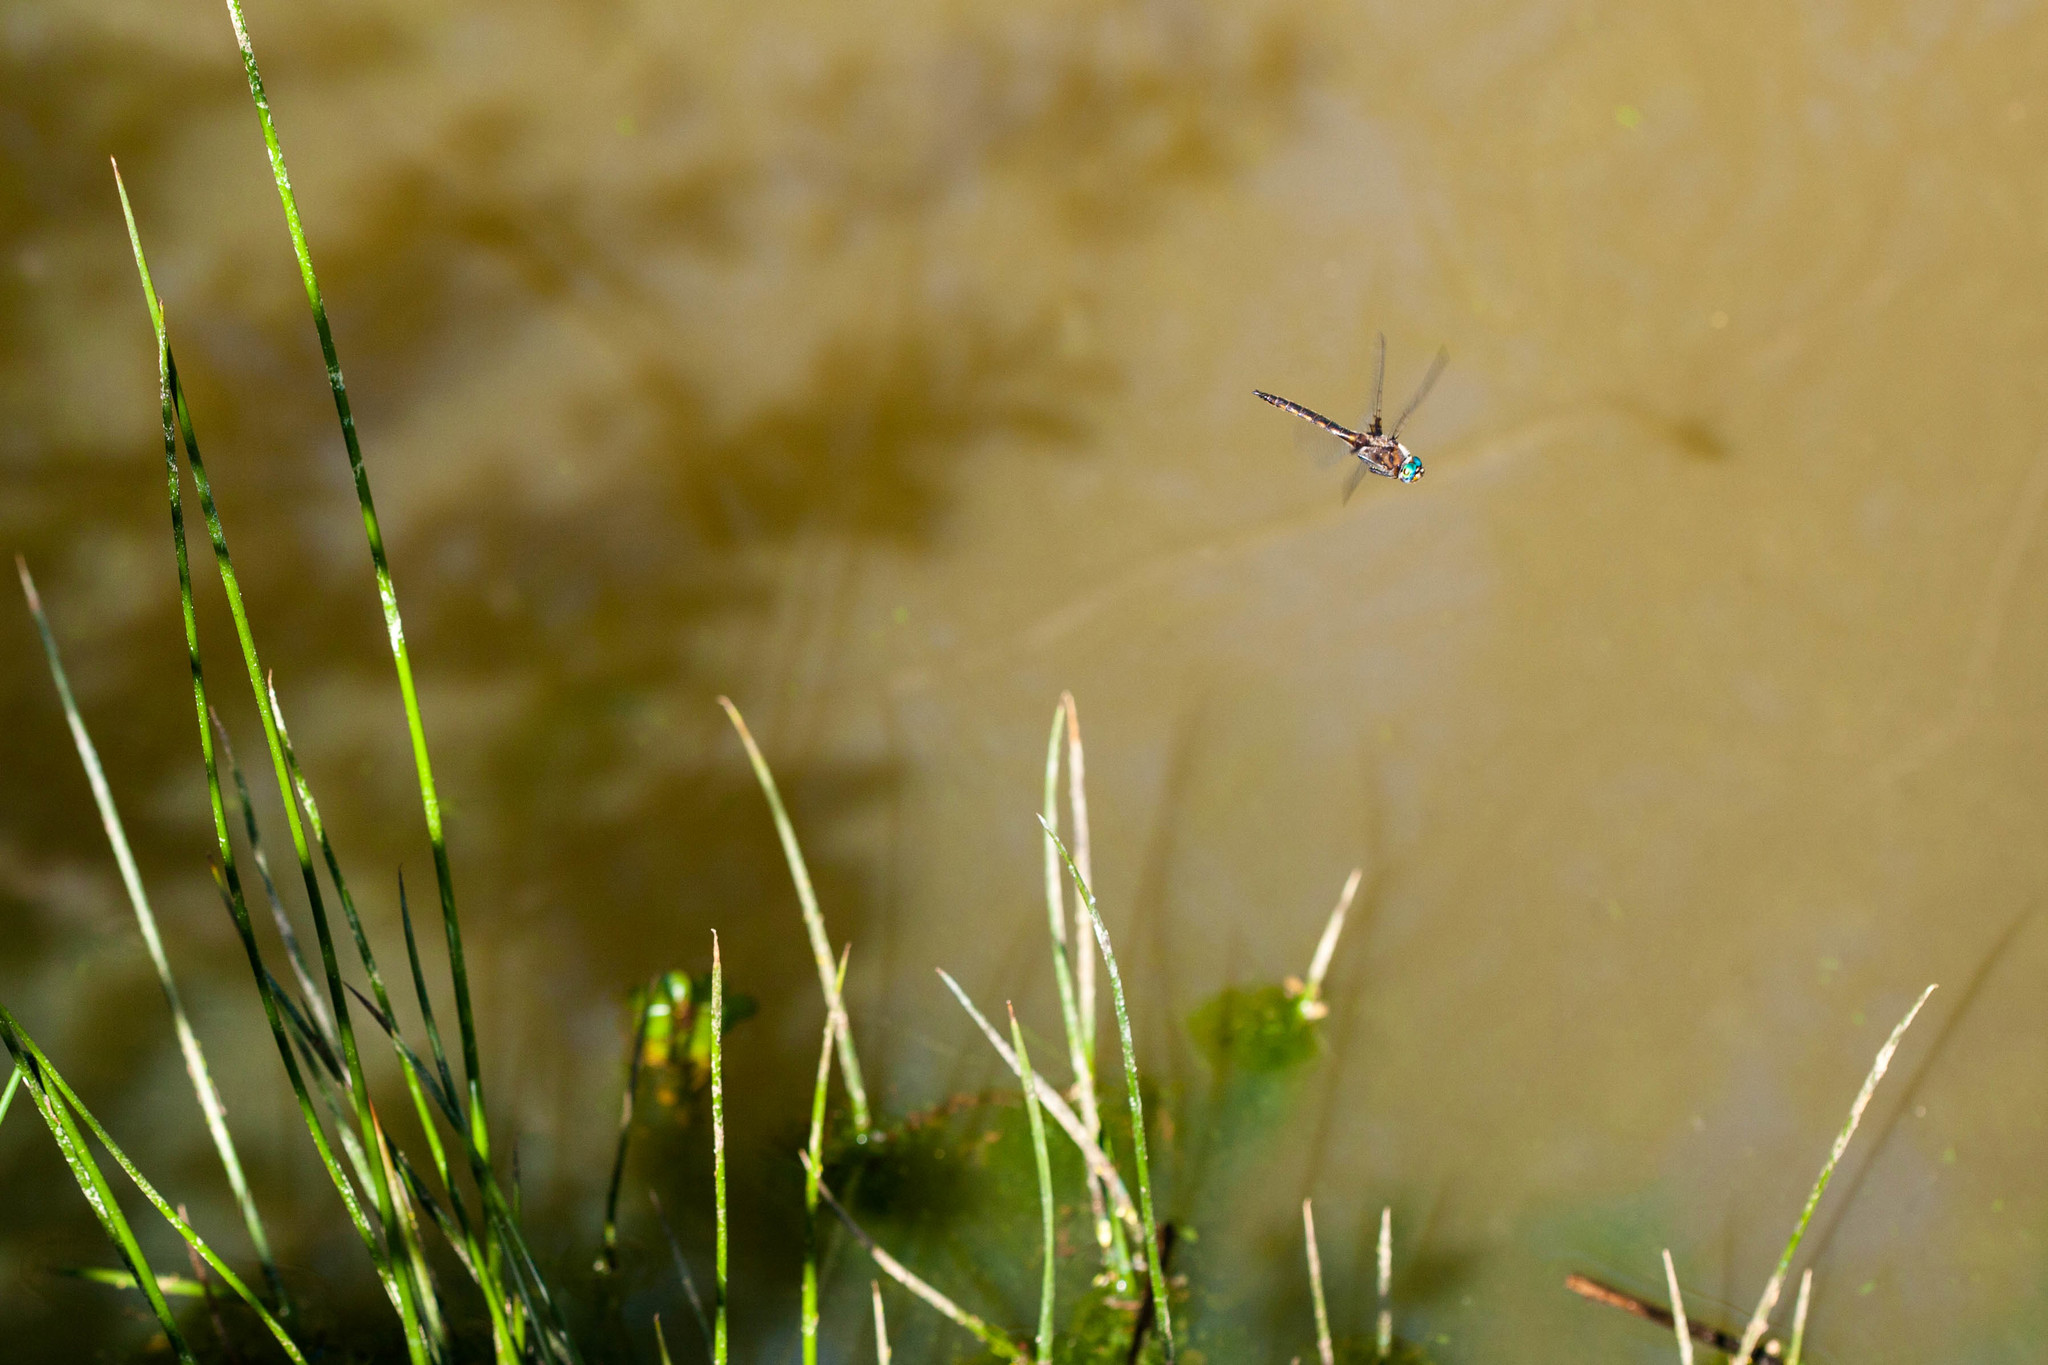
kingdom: Animalia
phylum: Arthropoda
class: Insecta
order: Odonata
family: Corduliidae
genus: Epitheca
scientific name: Epitheca cynosura
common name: Common baskettail
